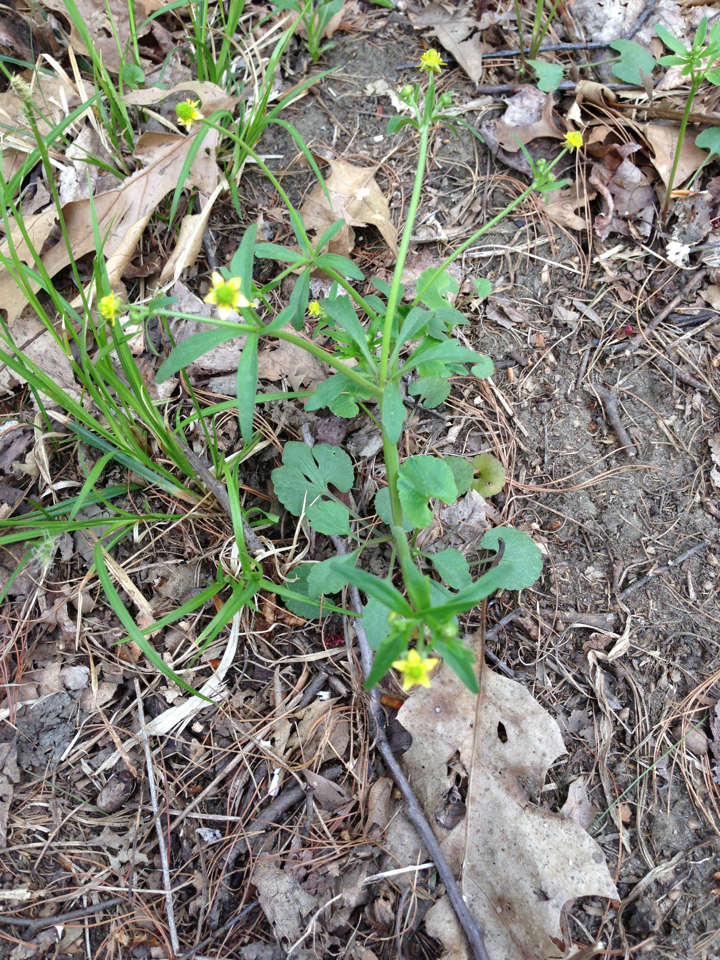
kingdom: Plantae
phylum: Tracheophyta
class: Magnoliopsida
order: Ranunculales
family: Ranunculaceae
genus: Ranunculus
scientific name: Ranunculus abortivus
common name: Early wood buttercup
